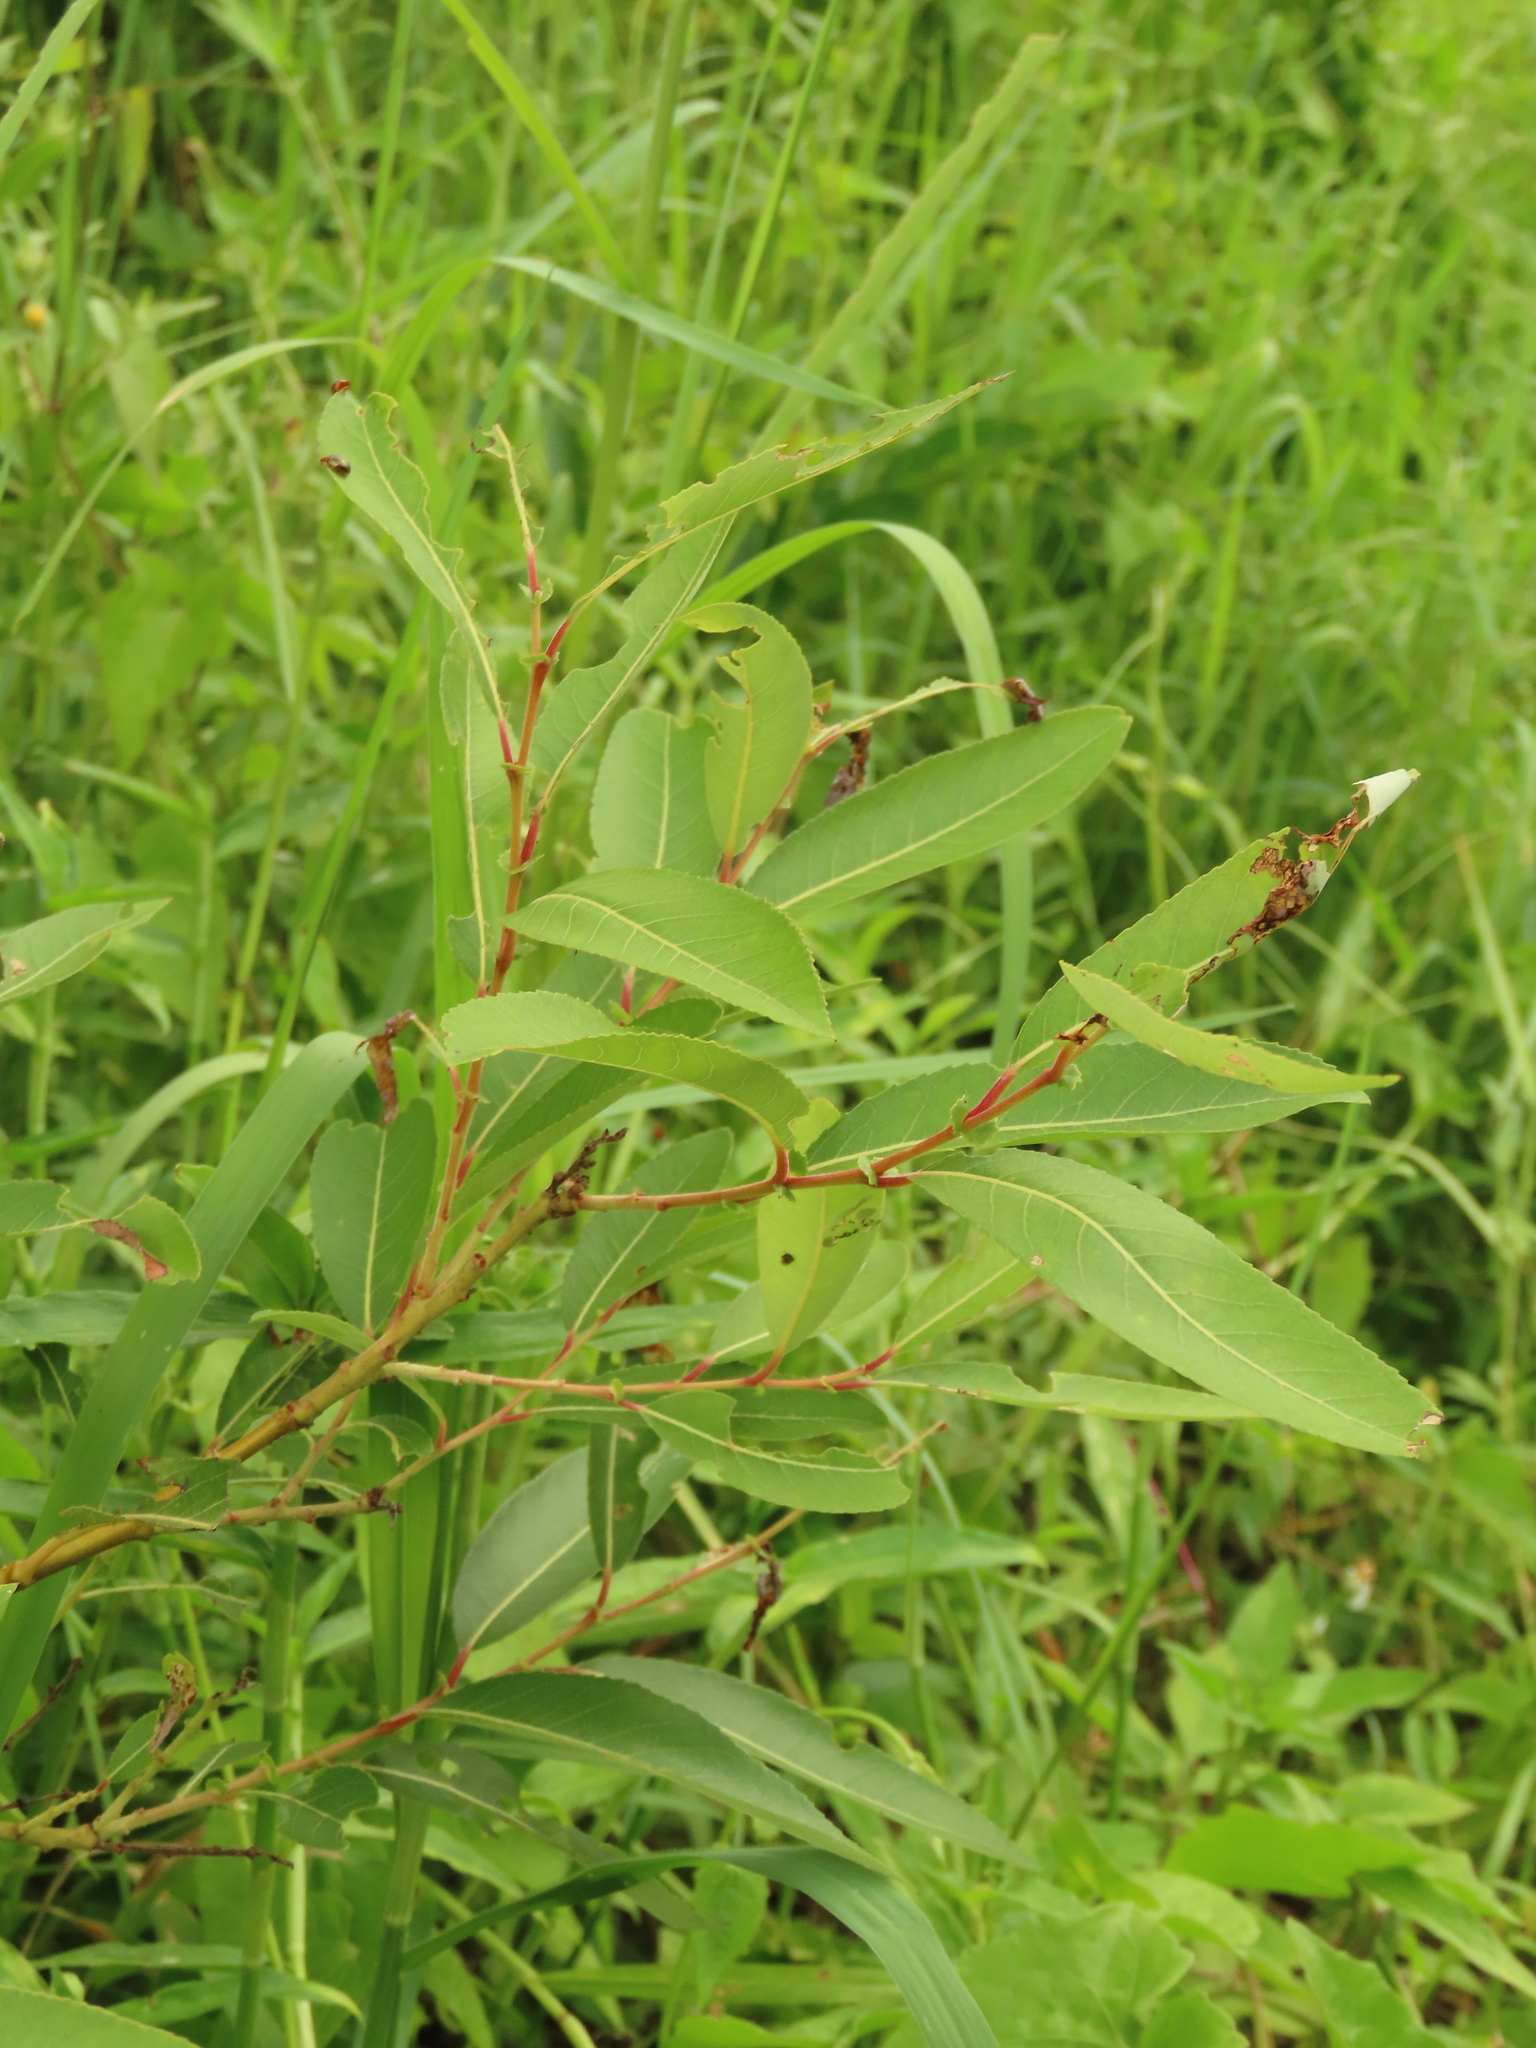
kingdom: Plantae
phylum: Tracheophyta
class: Magnoliopsida
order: Malpighiales
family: Salicaceae
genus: Salix
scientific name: Salix mesnyi
